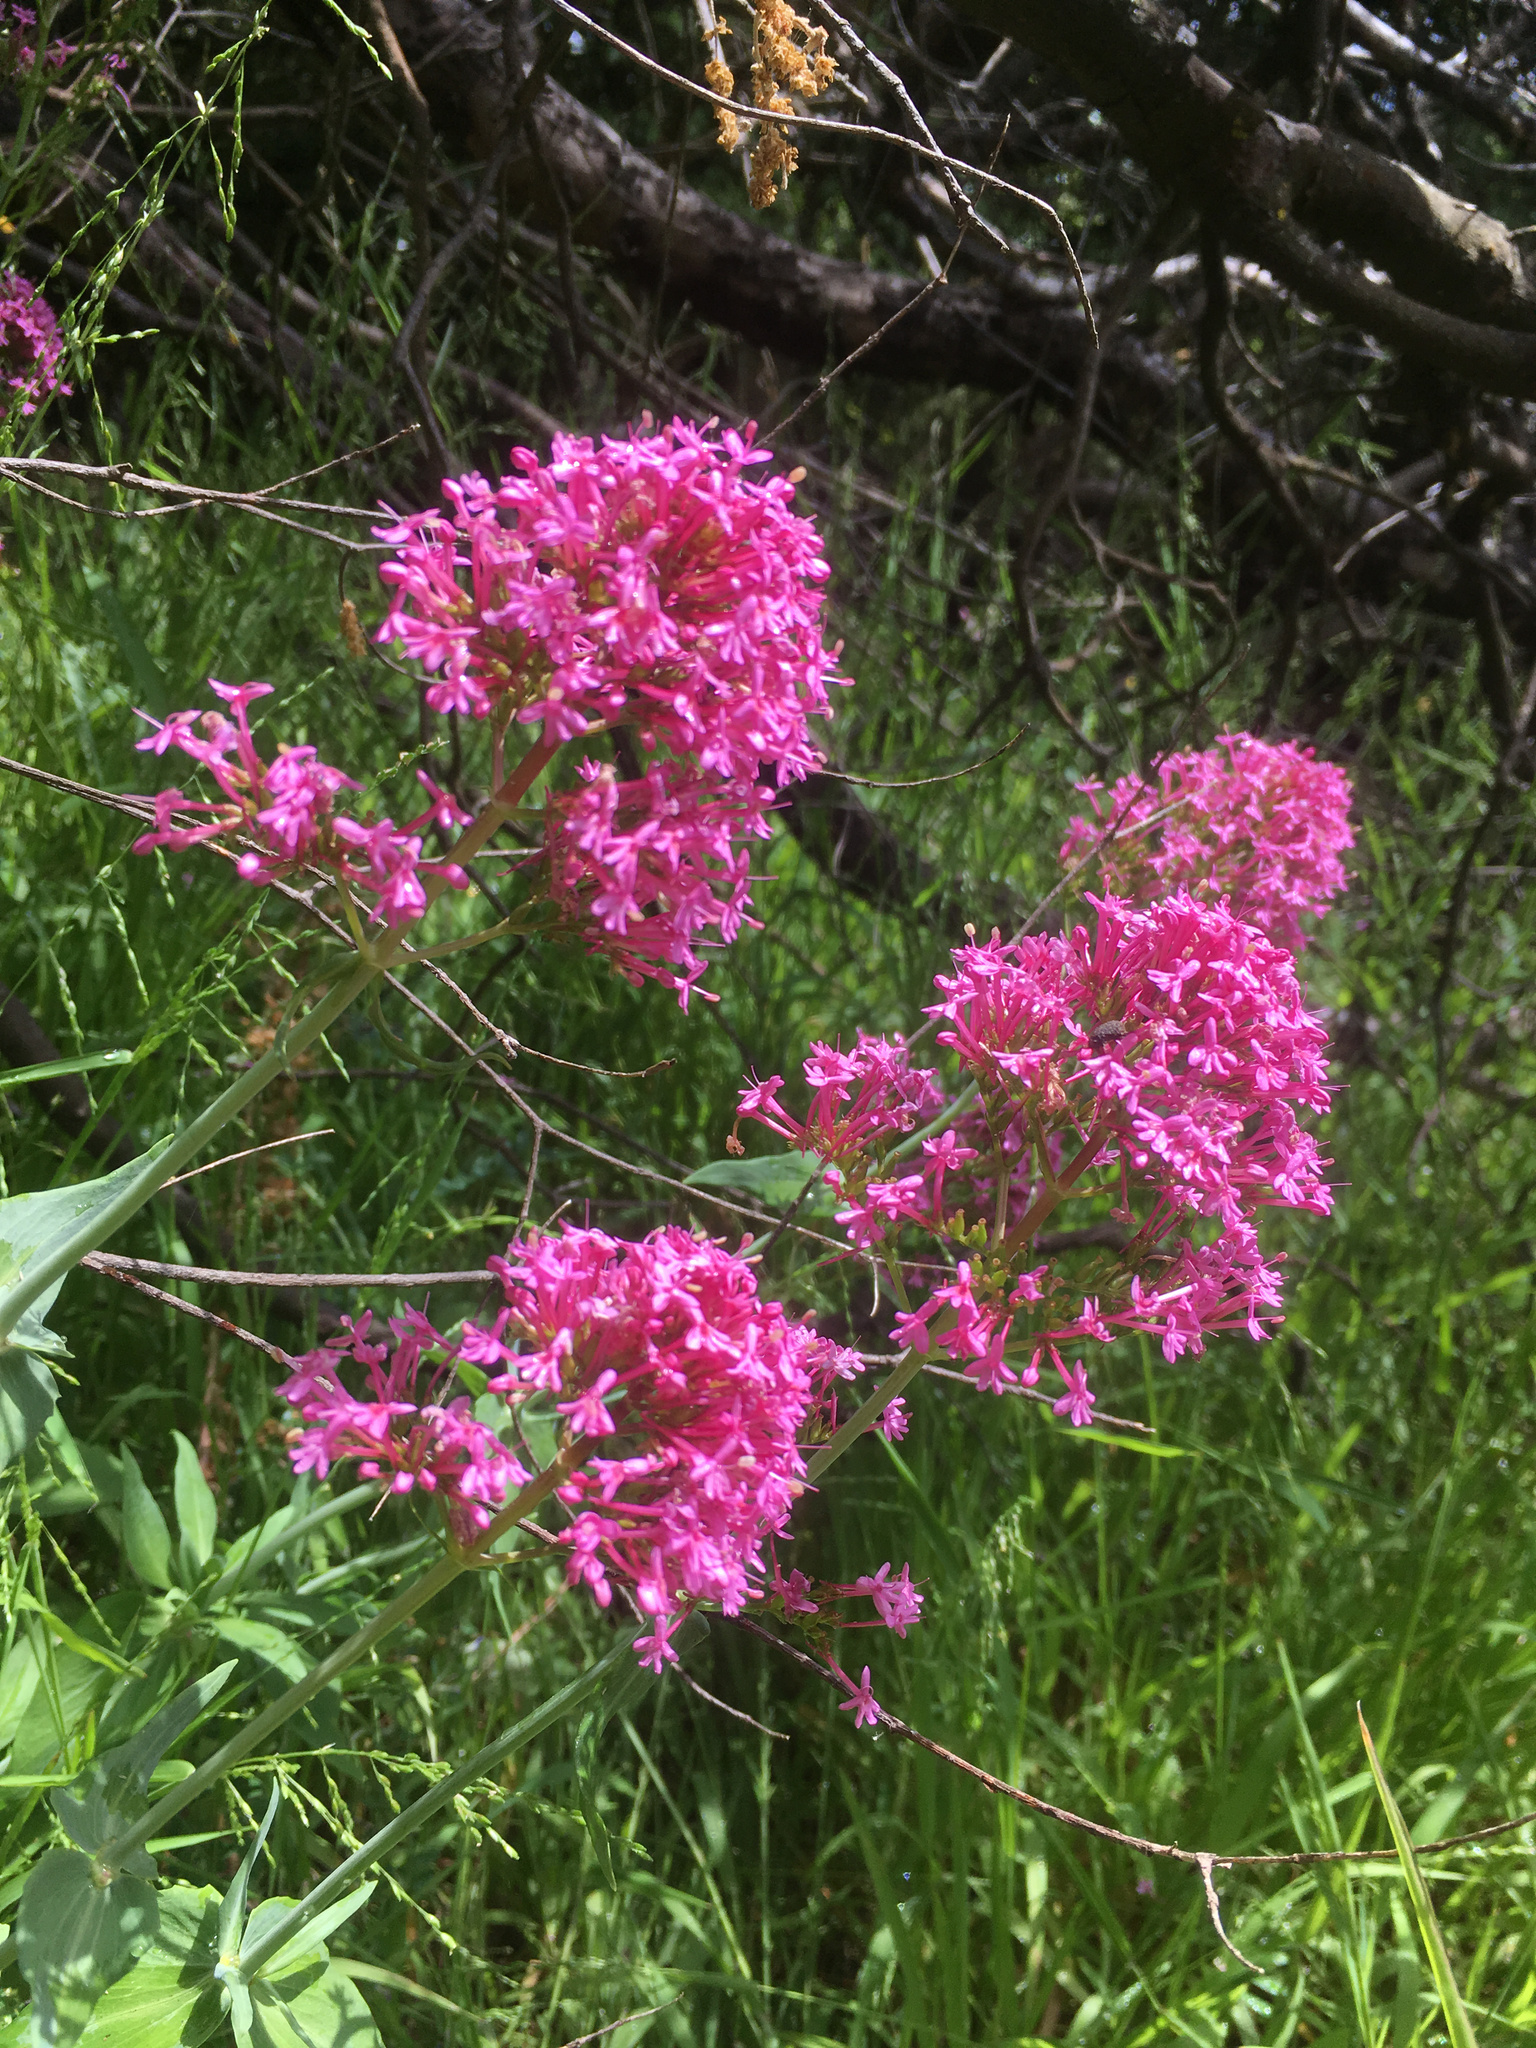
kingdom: Plantae
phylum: Tracheophyta
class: Magnoliopsida
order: Dipsacales
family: Caprifoliaceae
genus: Centranthus
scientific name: Centranthus ruber
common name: Red valerian
